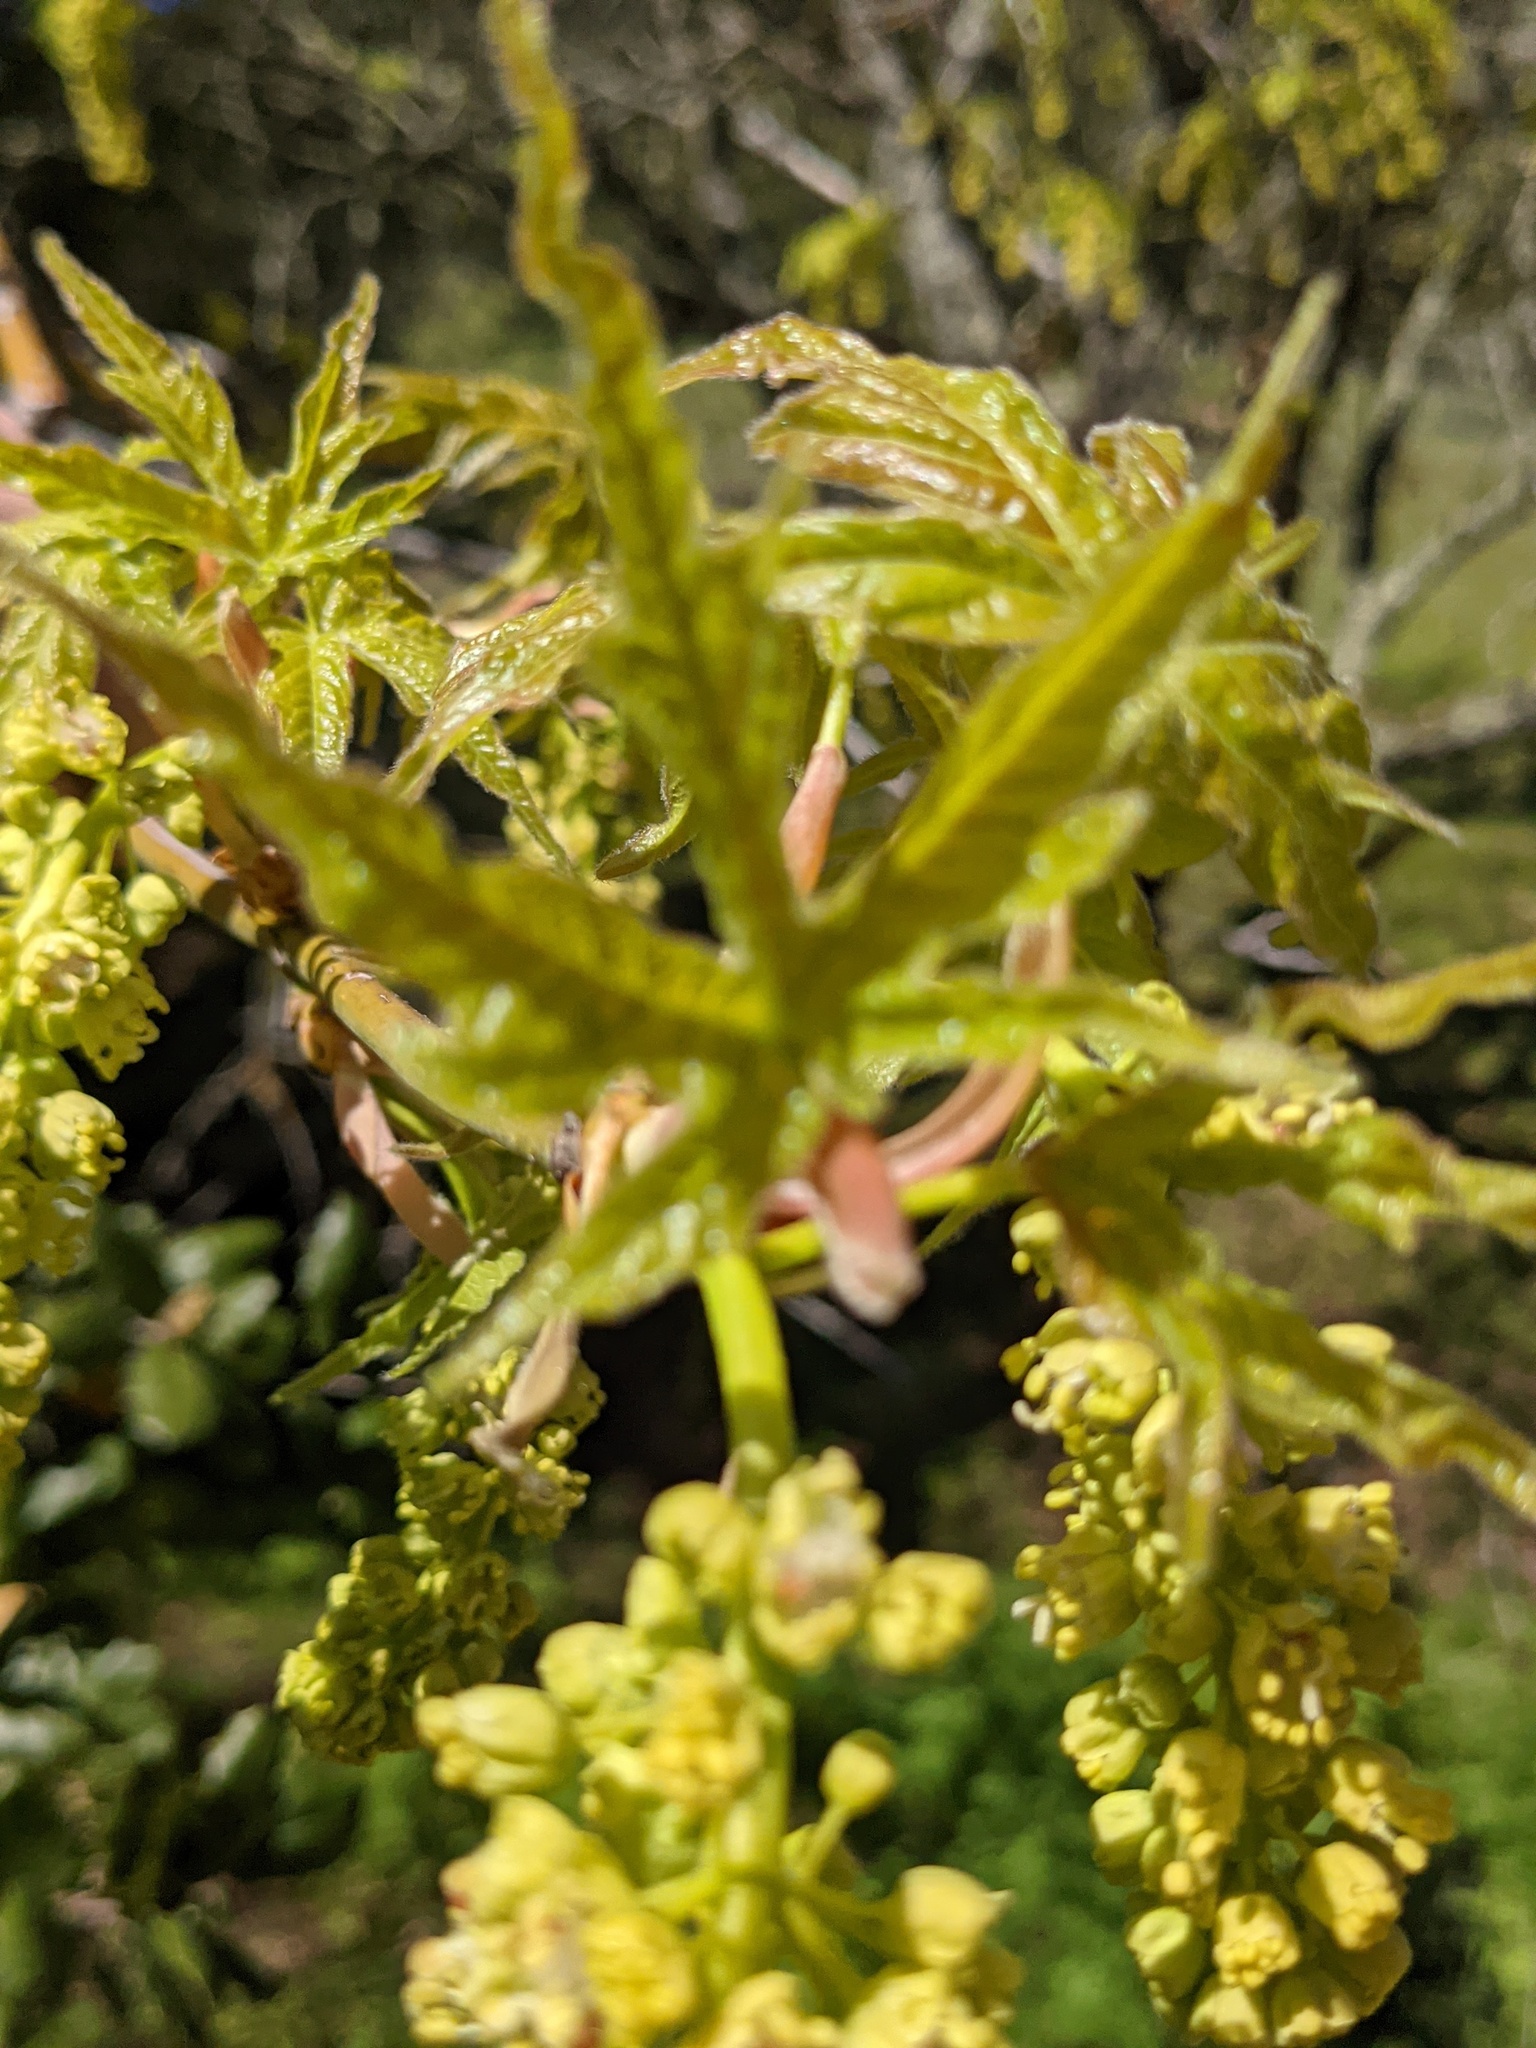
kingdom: Plantae
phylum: Tracheophyta
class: Magnoliopsida
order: Sapindales
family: Sapindaceae
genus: Acer
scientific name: Acer macrophyllum
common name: Oregon maple
